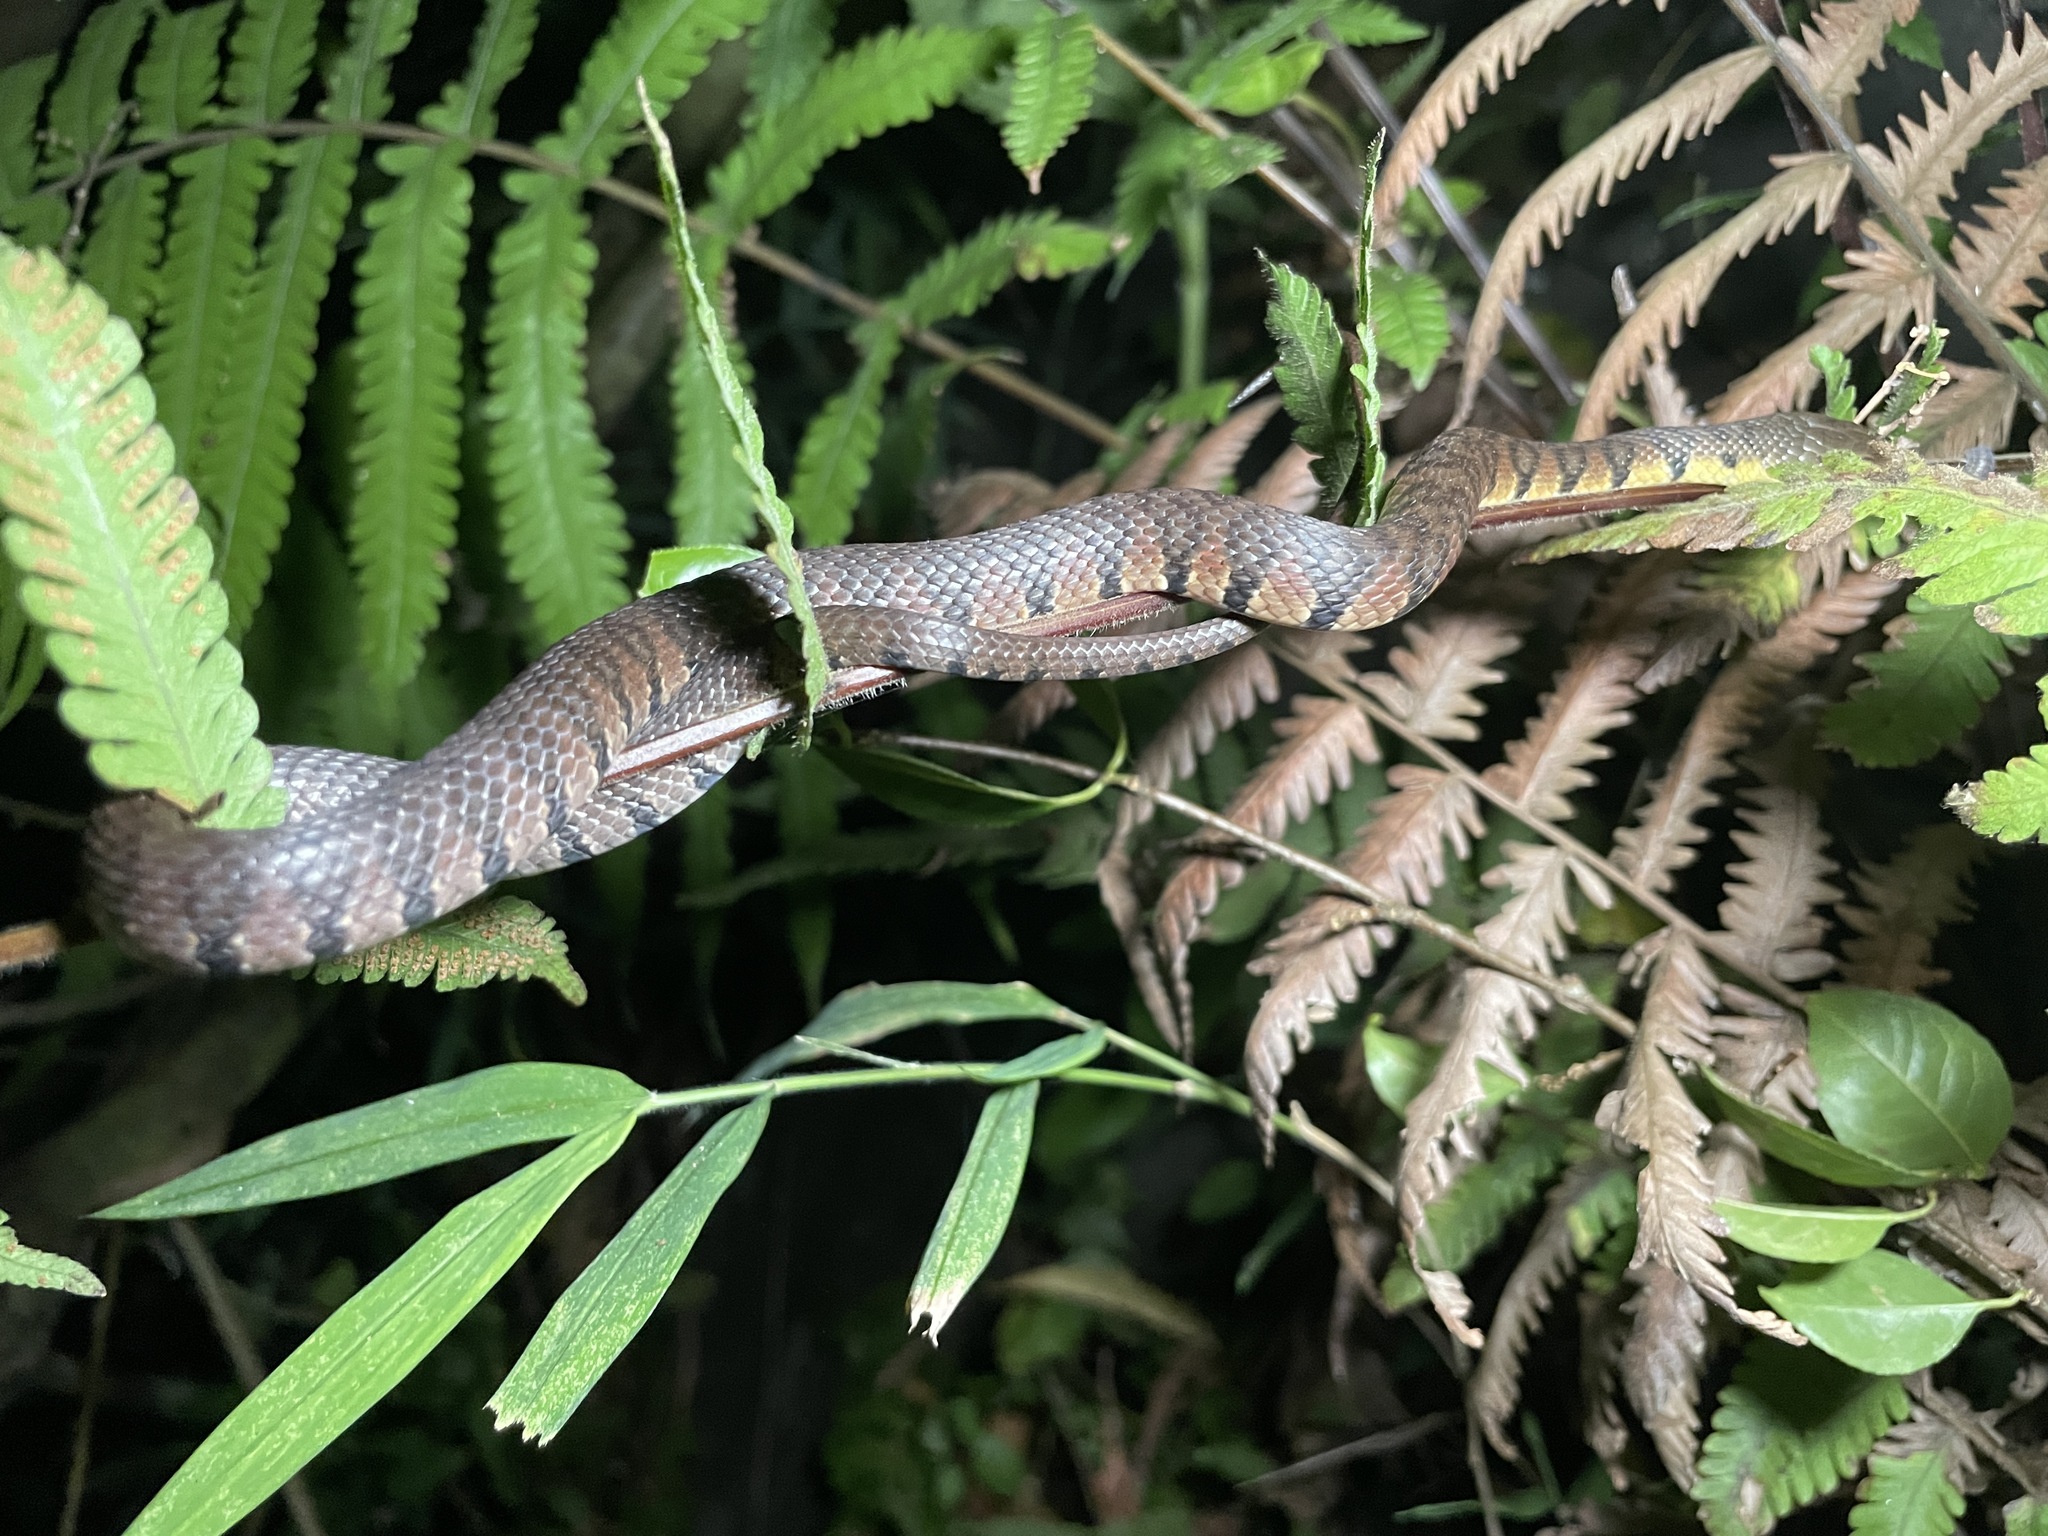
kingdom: Animalia
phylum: Chordata
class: Squamata
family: Colubridae
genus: Trimerodytes
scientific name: Trimerodytes percarinatus
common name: Eastern water snake
